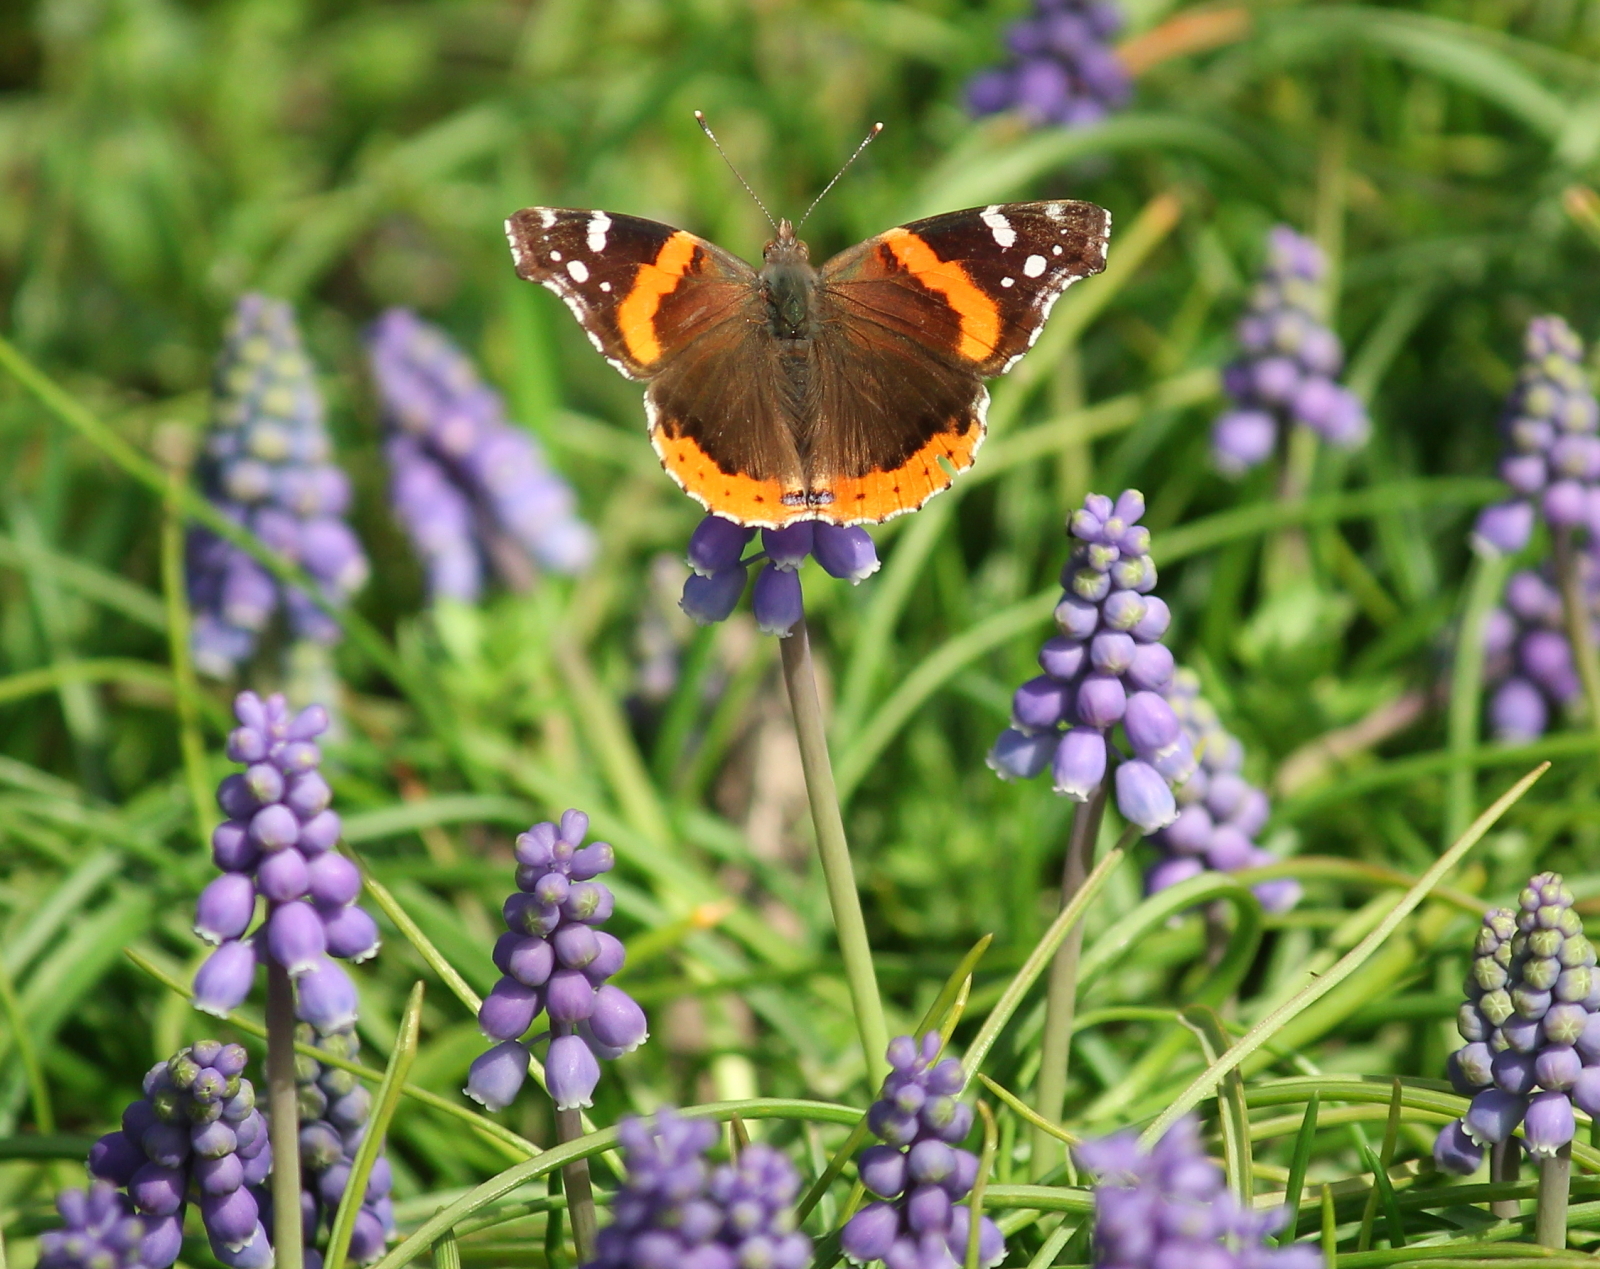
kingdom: Animalia
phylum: Arthropoda
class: Insecta
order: Lepidoptera
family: Nymphalidae
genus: Vanessa
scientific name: Vanessa atalanta
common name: Red admiral
